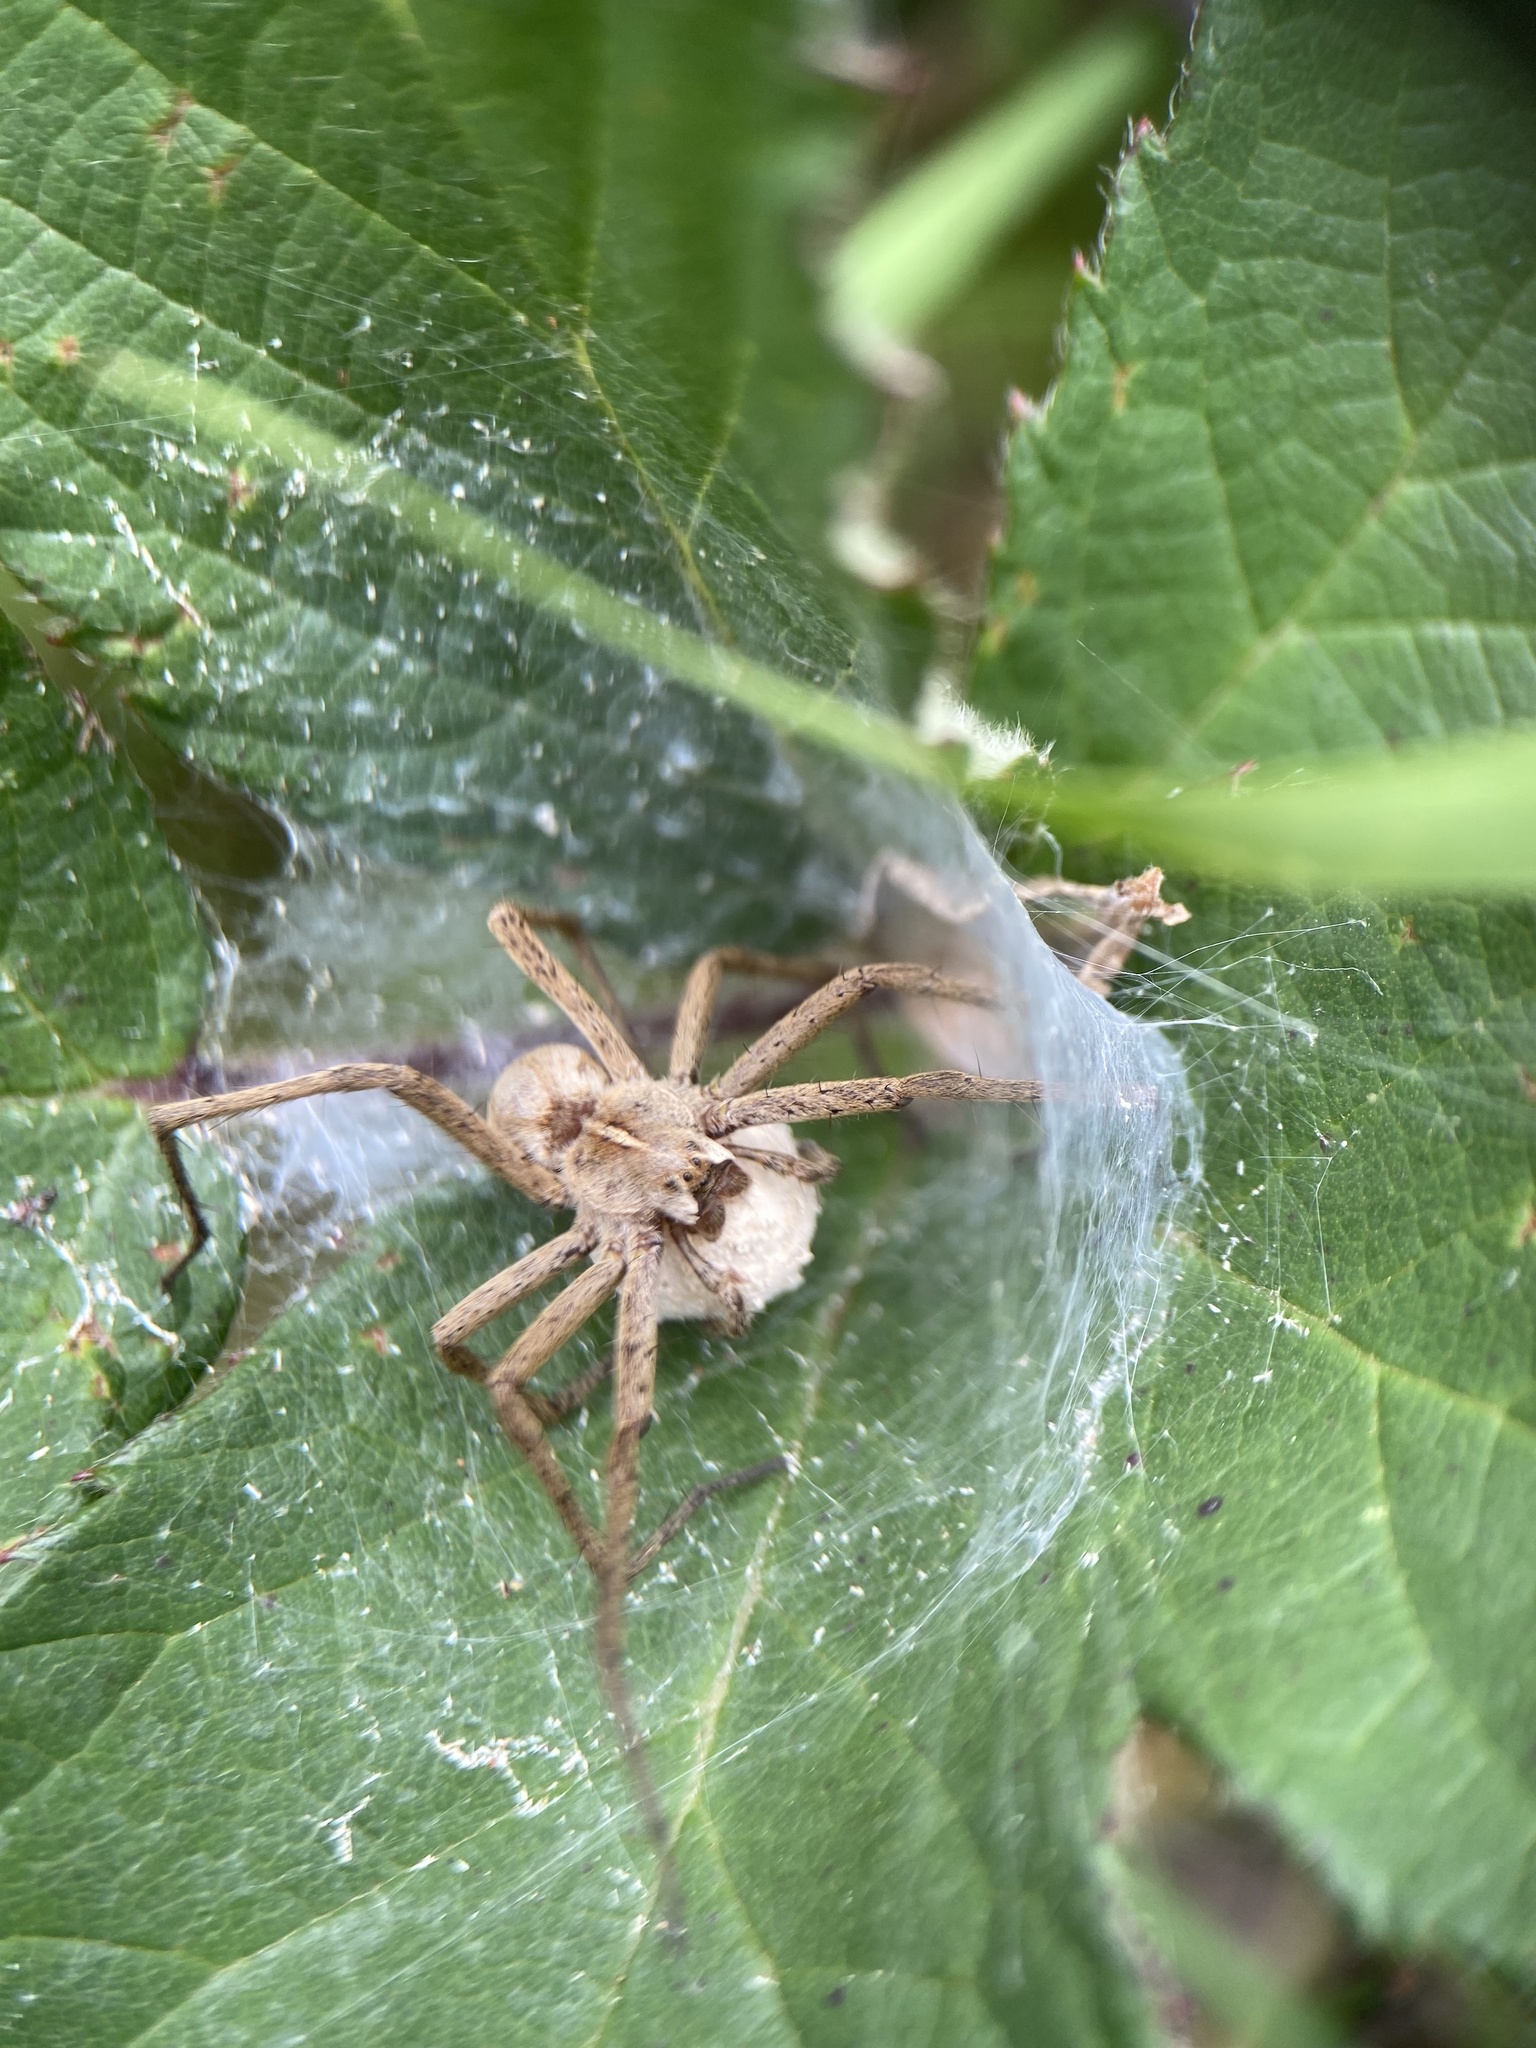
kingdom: Animalia
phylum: Arthropoda
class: Arachnida
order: Araneae
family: Pisauridae
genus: Pisaura
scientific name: Pisaura mirabilis
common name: Tent spider
